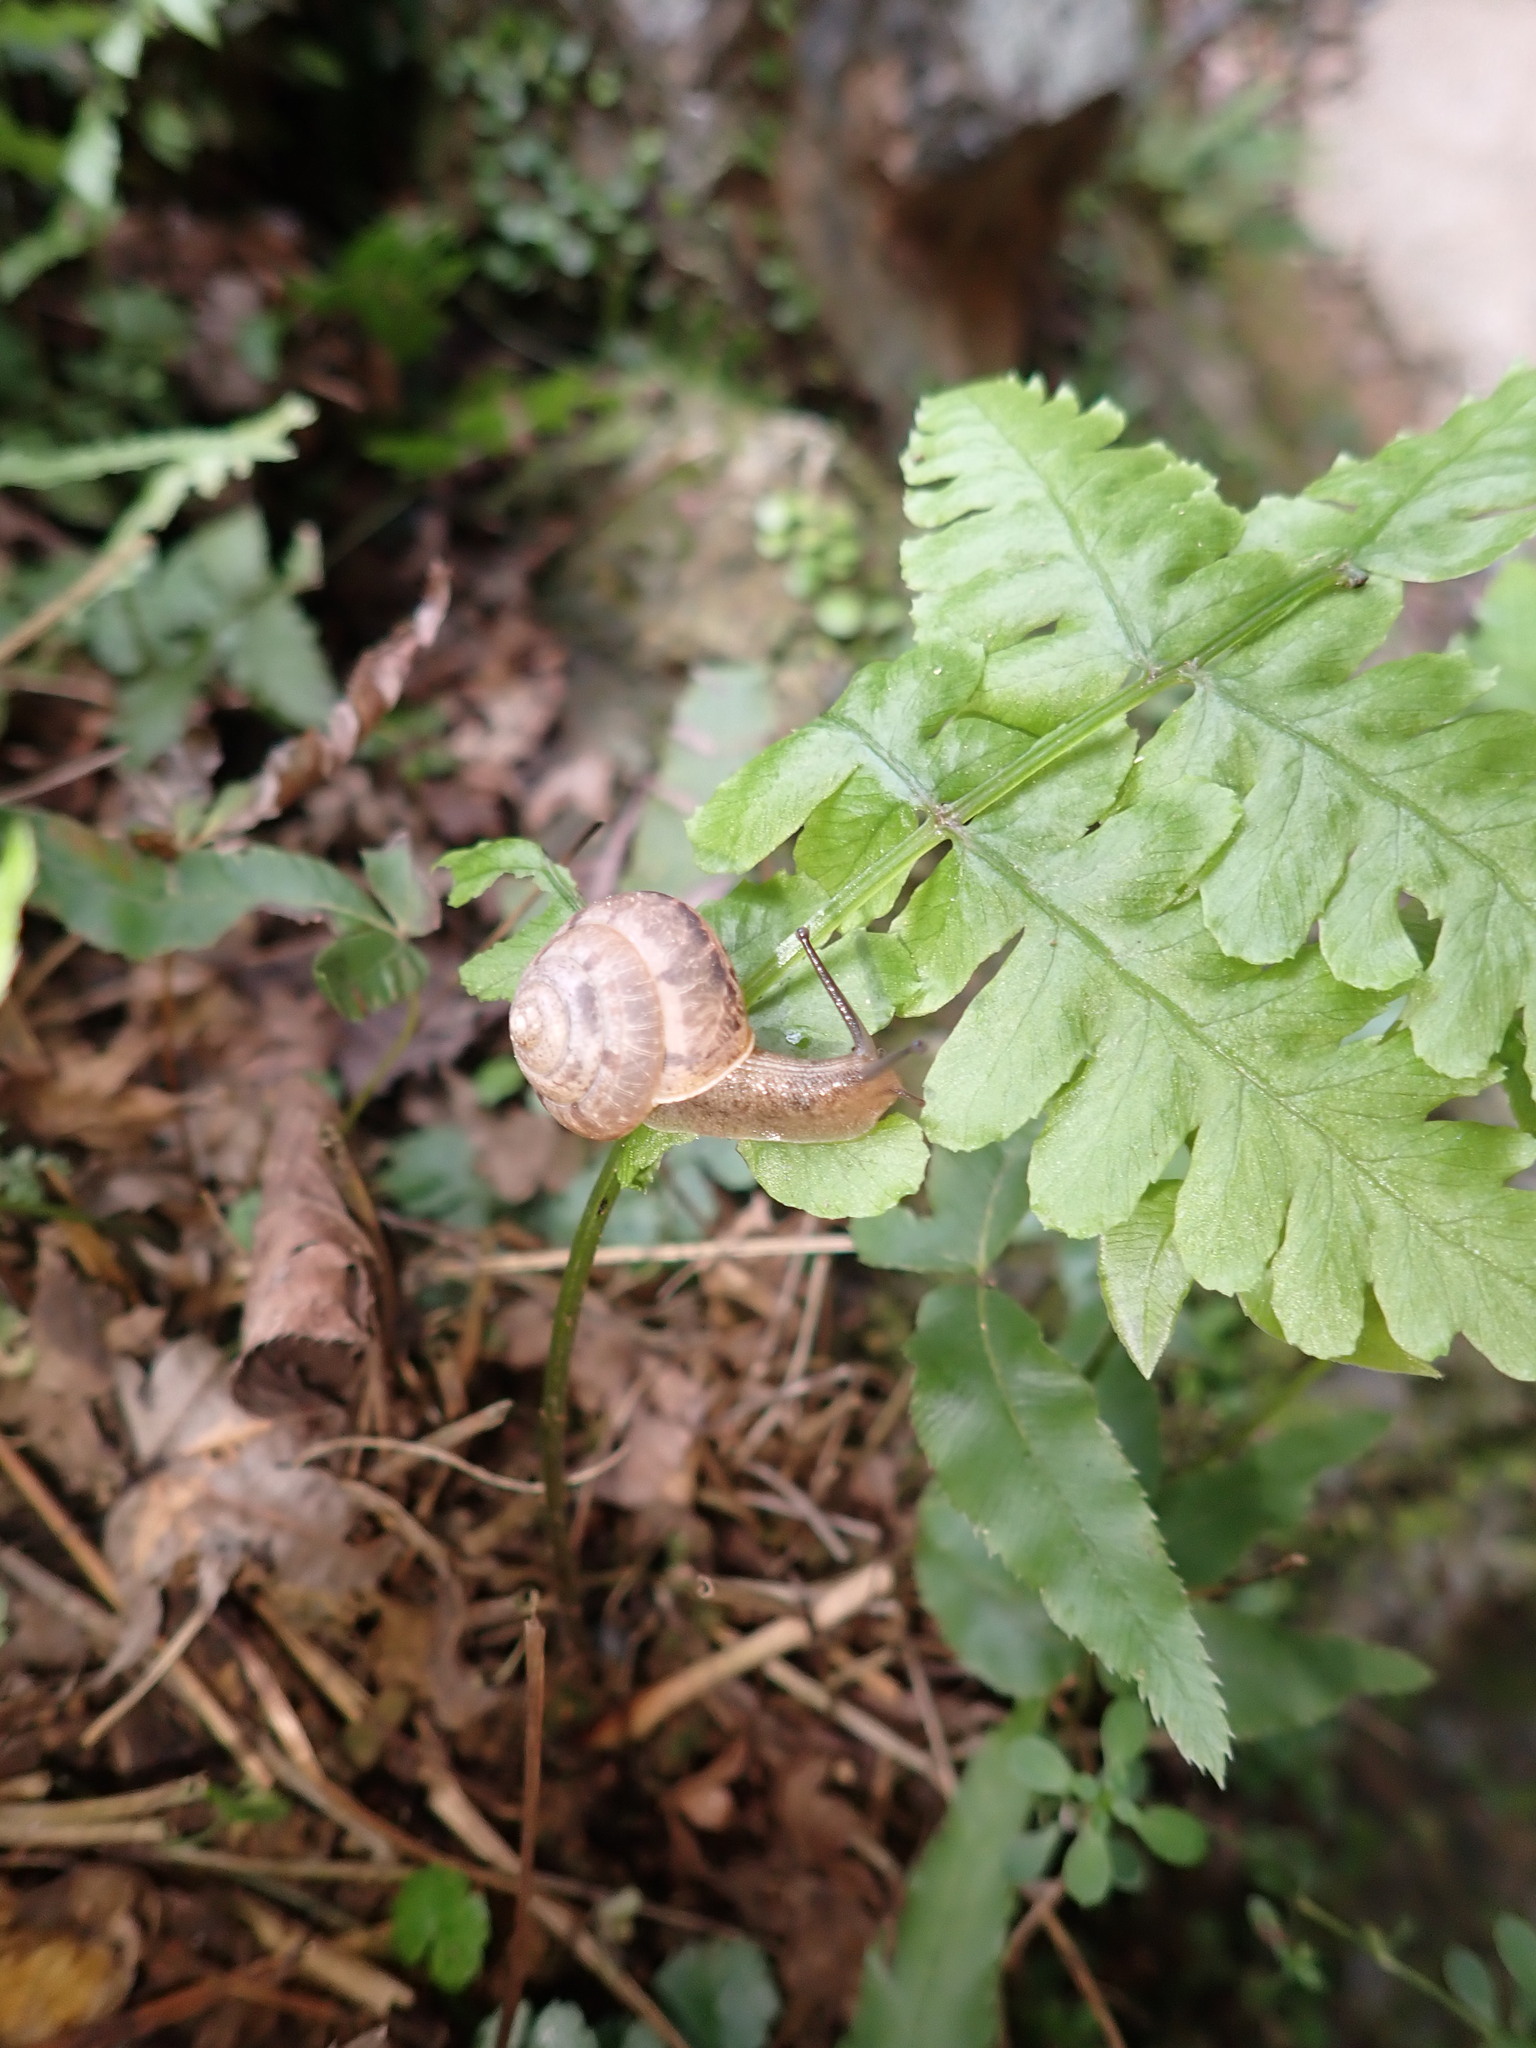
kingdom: Animalia
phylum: Mollusca
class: Gastropoda
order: Stylommatophora
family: Camaenidae
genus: Satsuma
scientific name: Satsuma japonica
